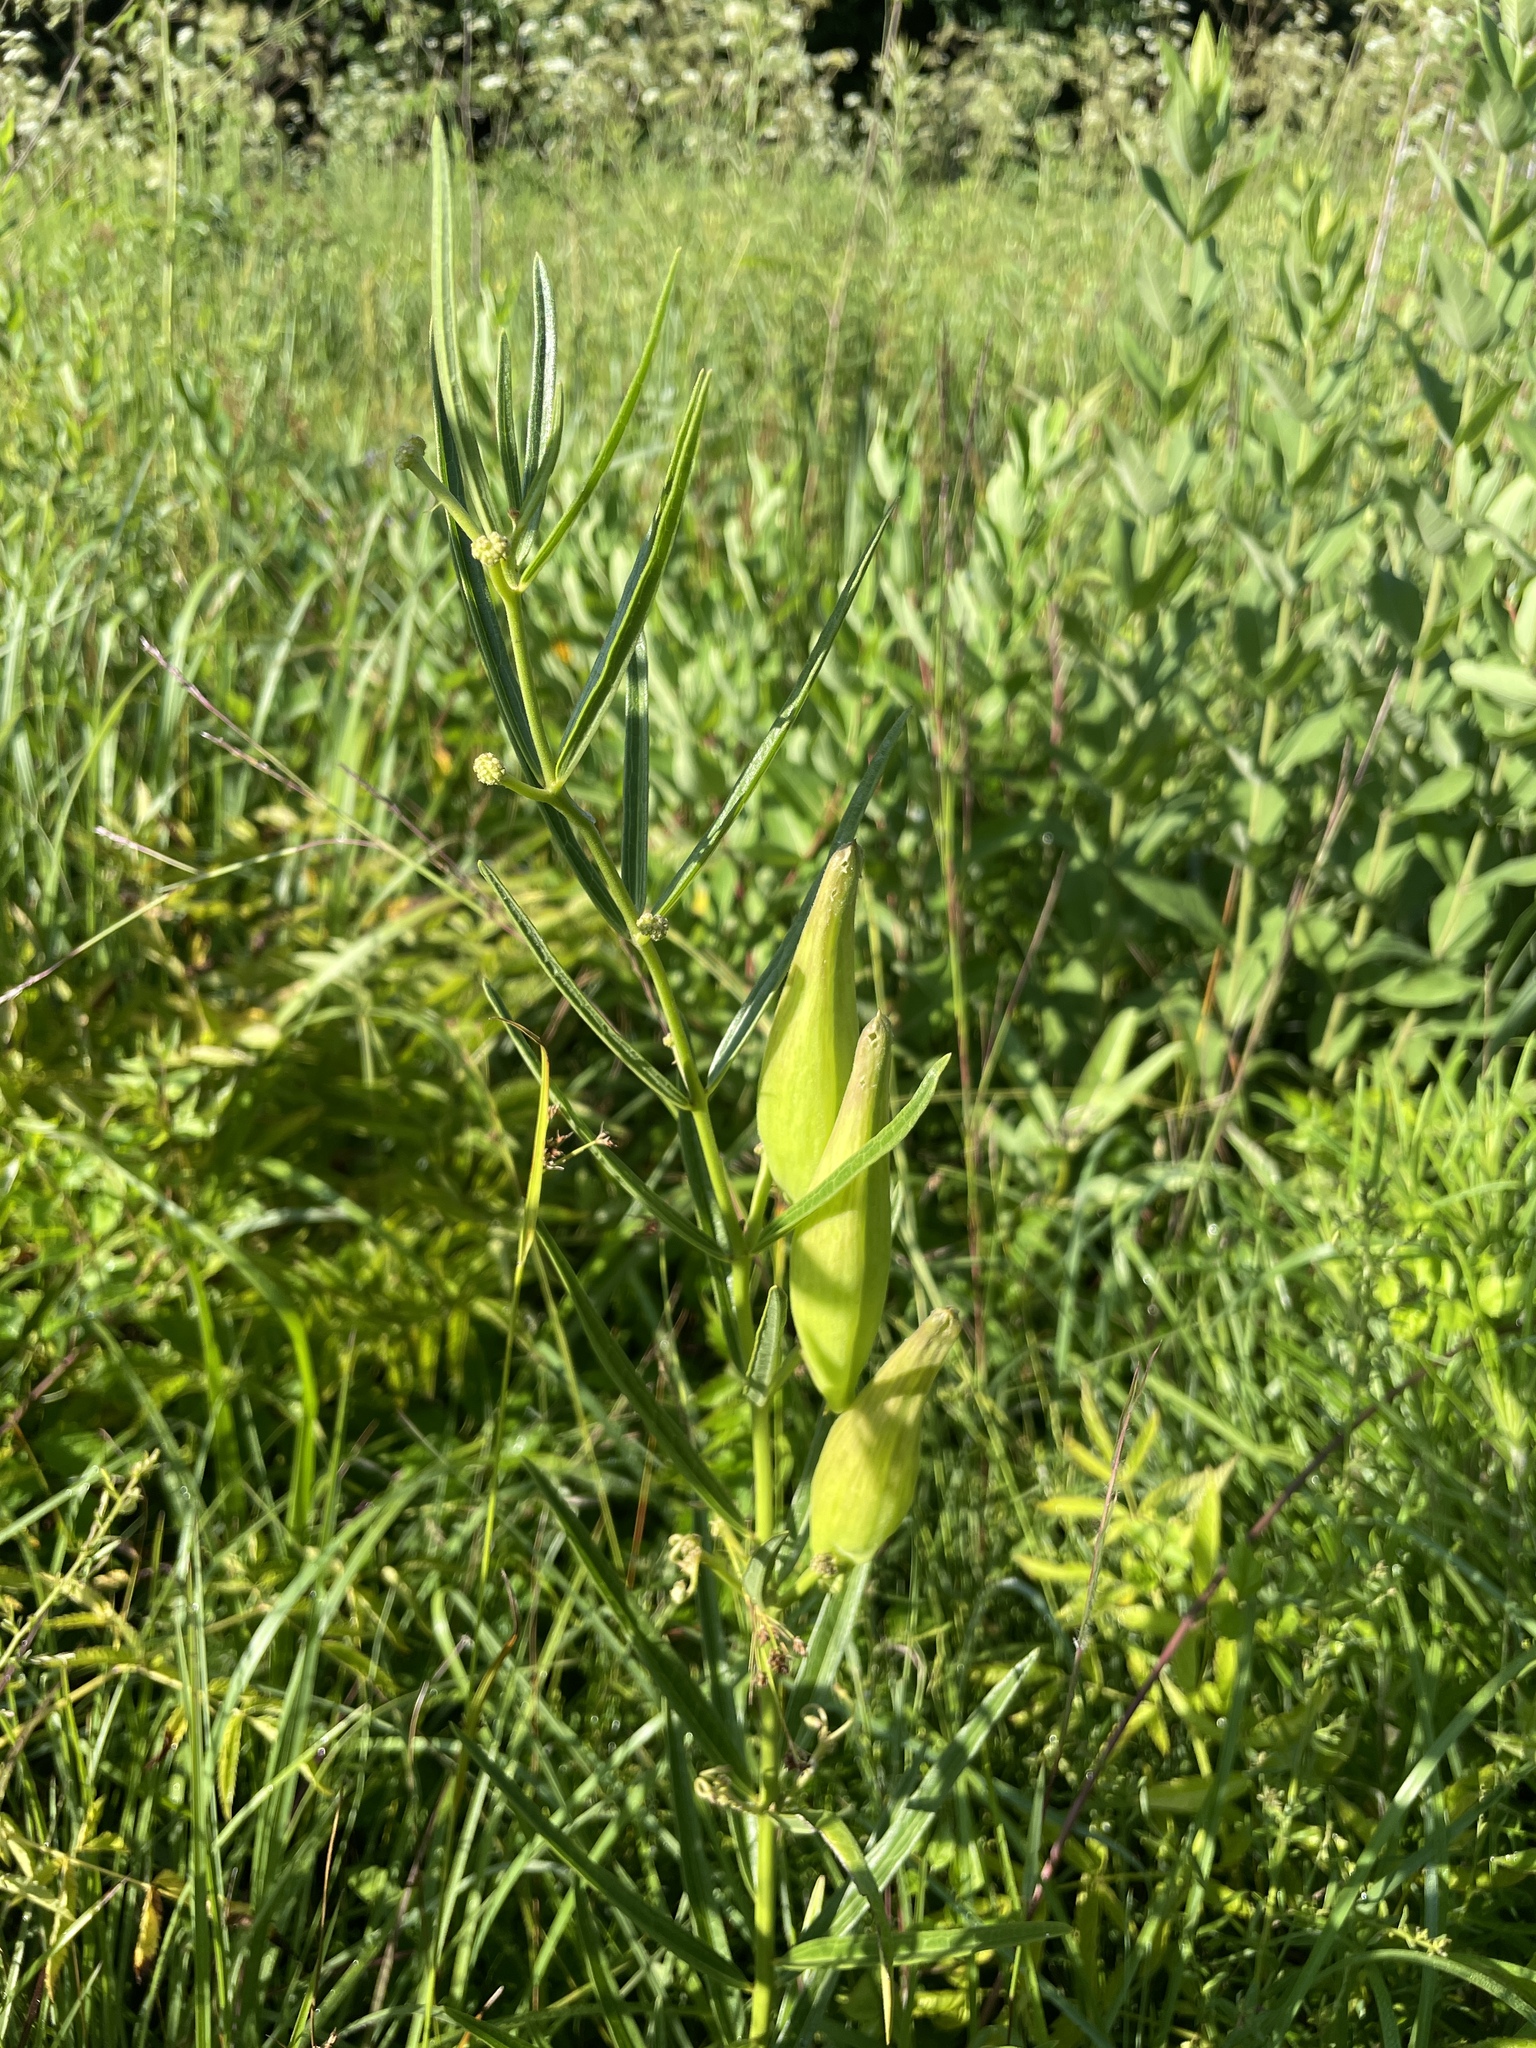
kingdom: Plantae
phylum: Tracheophyta
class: Magnoliopsida
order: Gentianales
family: Apocynaceae
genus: Asclepias
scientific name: Asclepias hirtella
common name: Prairie milkweed
